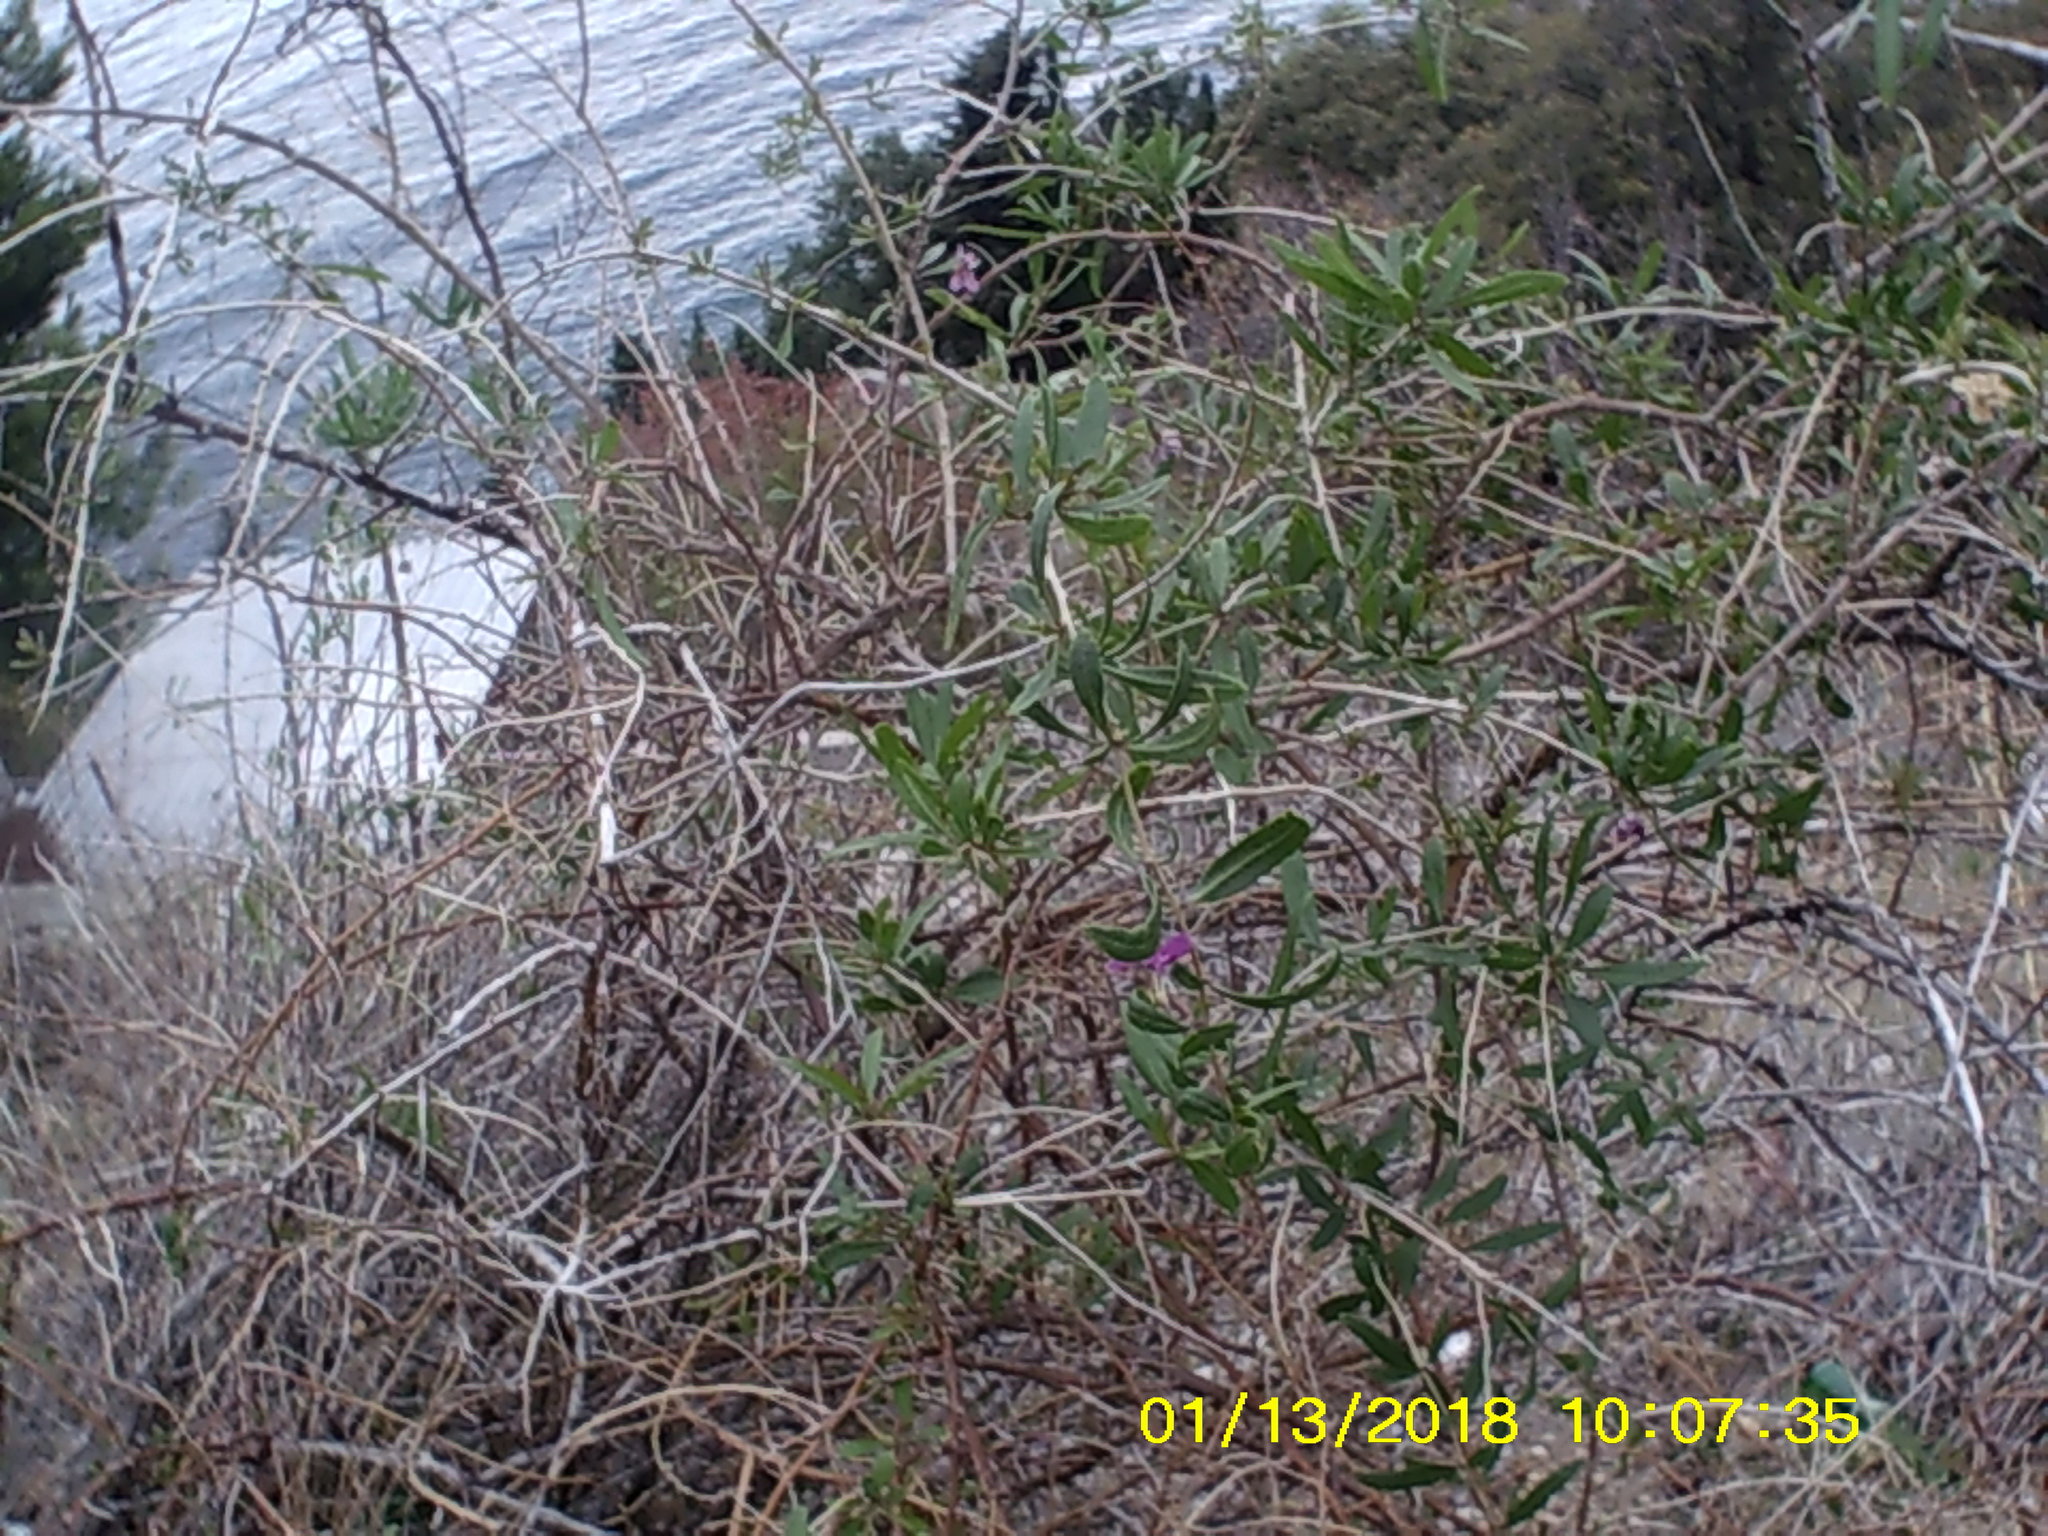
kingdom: Plantae
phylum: Tracheophyta
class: Magnoliopsida
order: Solanales
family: Solanaceae
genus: Lycium
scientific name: Lycium barbarum
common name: Duke of argyll's teaplant
